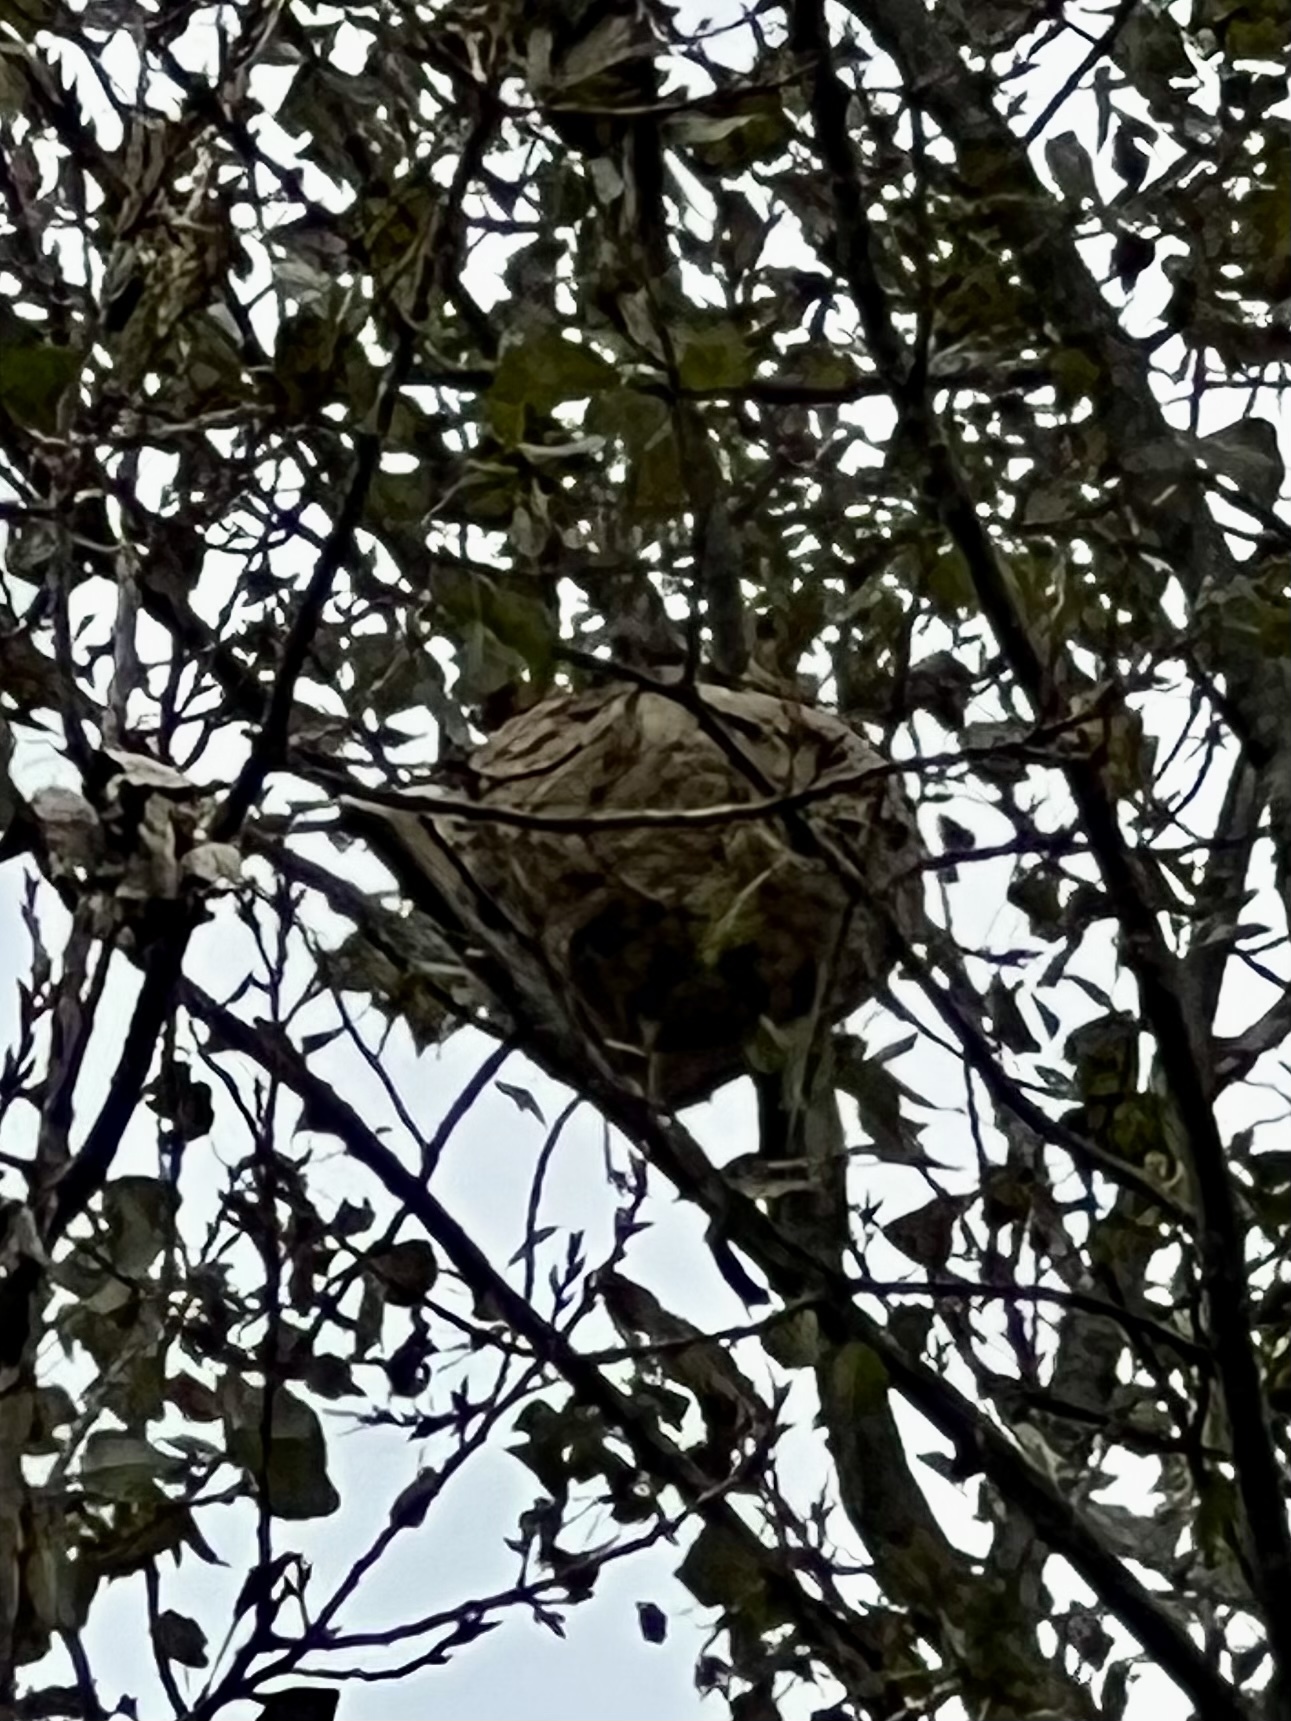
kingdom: Animalia
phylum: Arthropoda
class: Insecta
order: Hymenoptera
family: Vespidae
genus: Vespa
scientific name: Vespa velutina
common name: Asian hornet
